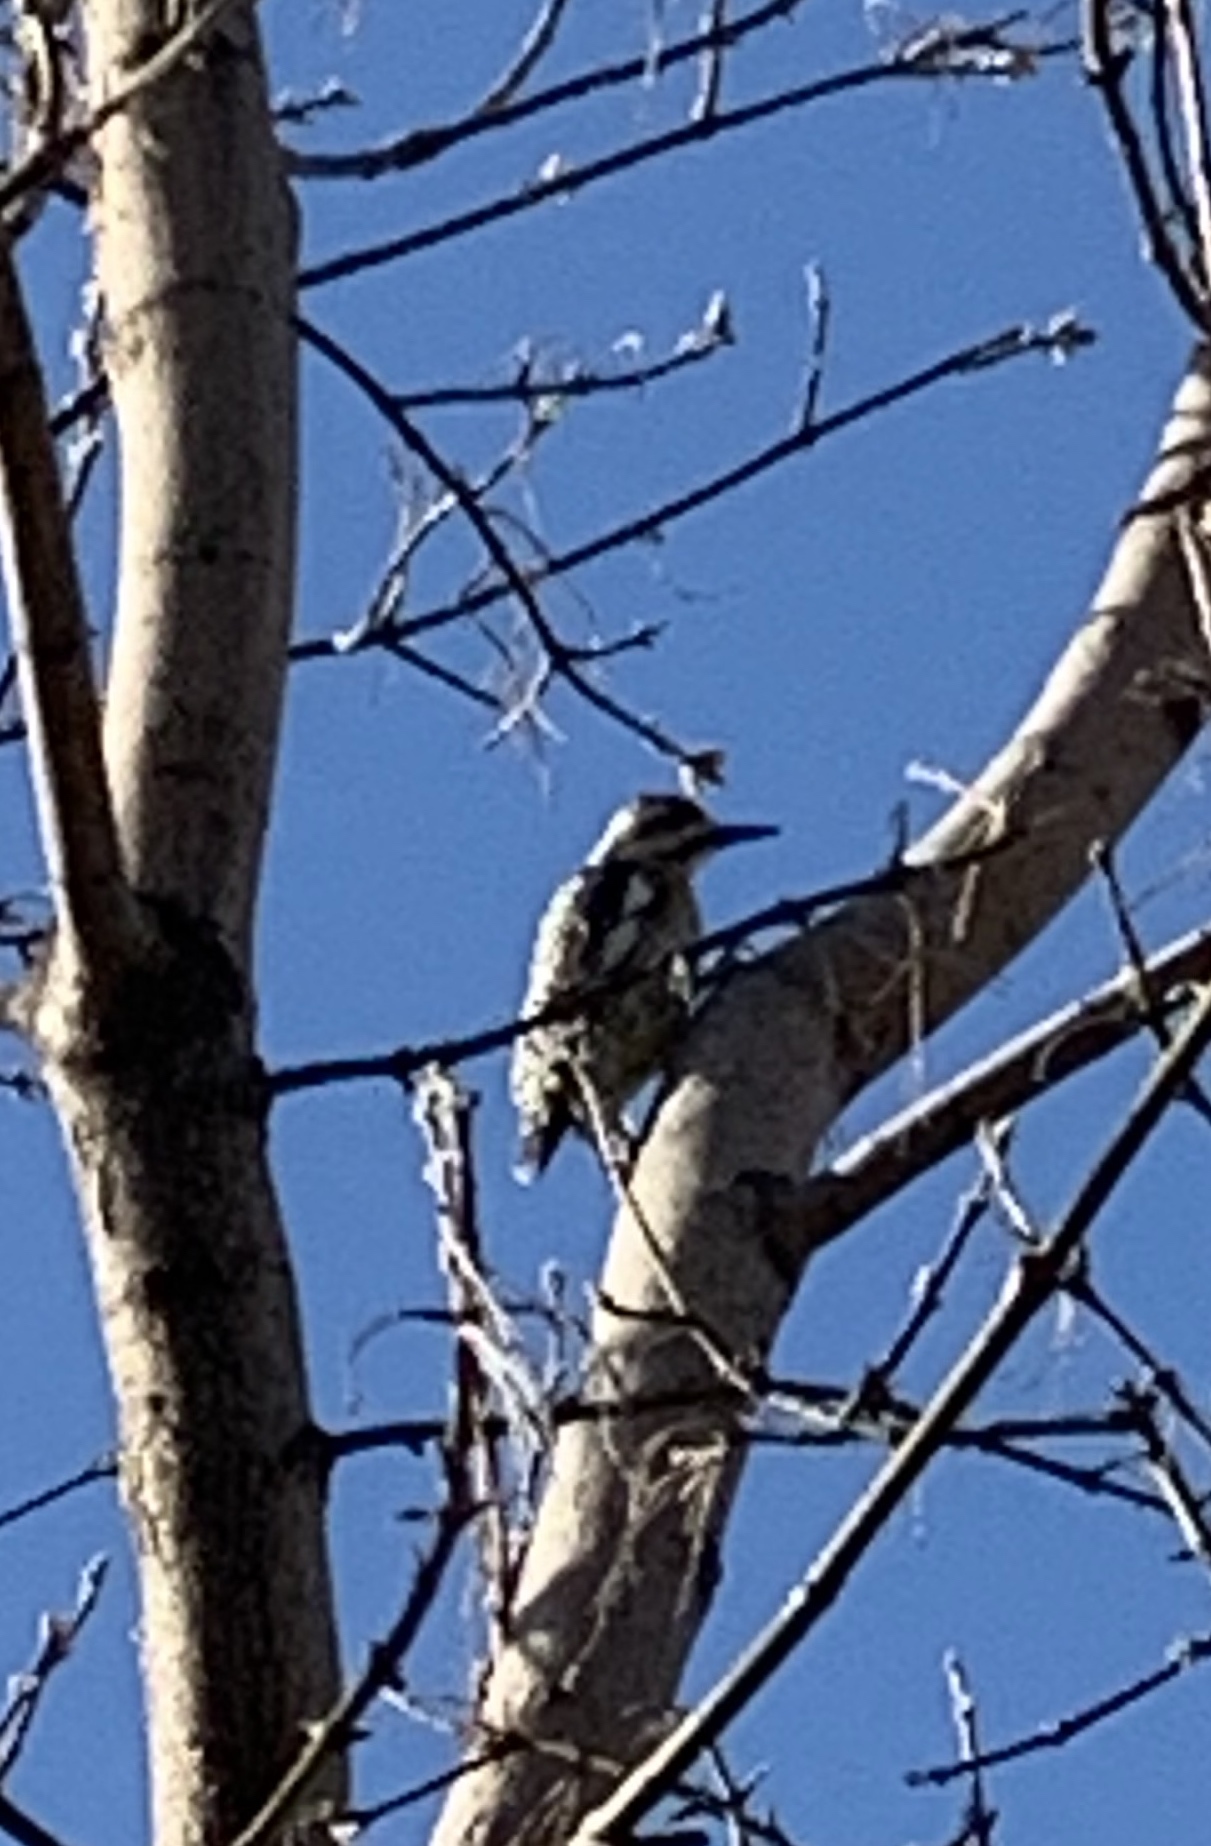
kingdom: Animalia
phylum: Chordata
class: Aves
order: Piciformes
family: Picidae
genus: Sphyrapicus
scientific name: Sphyrapicus varius
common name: Yellow-bellied sapsucker
